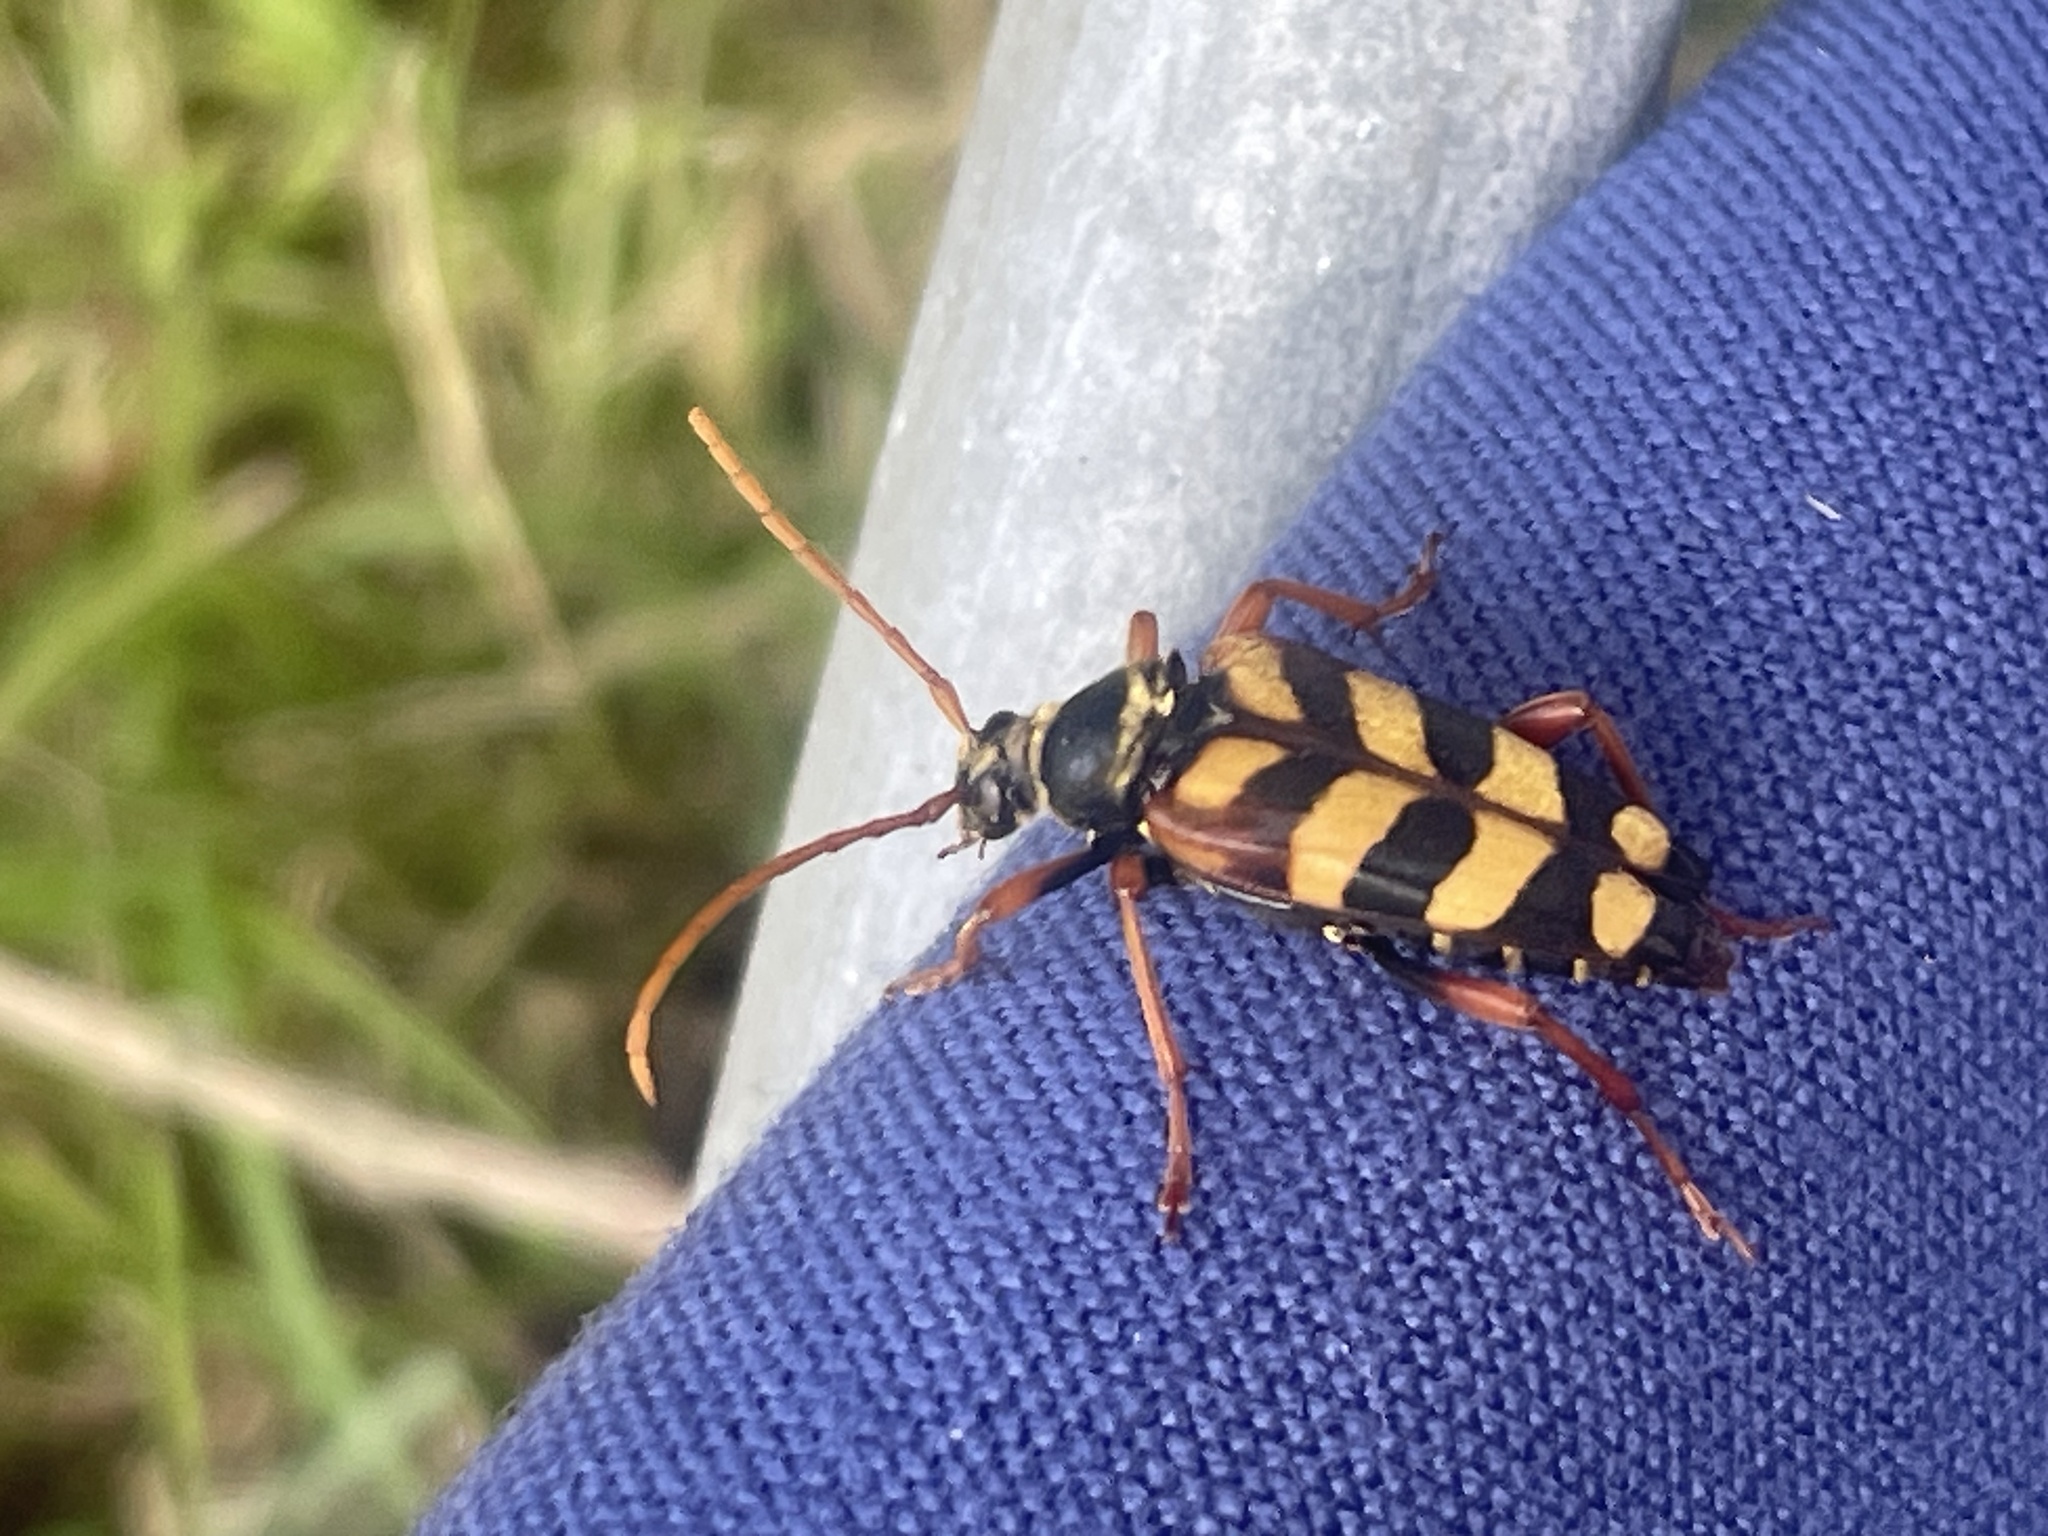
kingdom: Animalia
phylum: Arthropoda
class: Insecta
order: Coleoptera
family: Cerambycidae
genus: Leptura
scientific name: Leptura aurulenta
